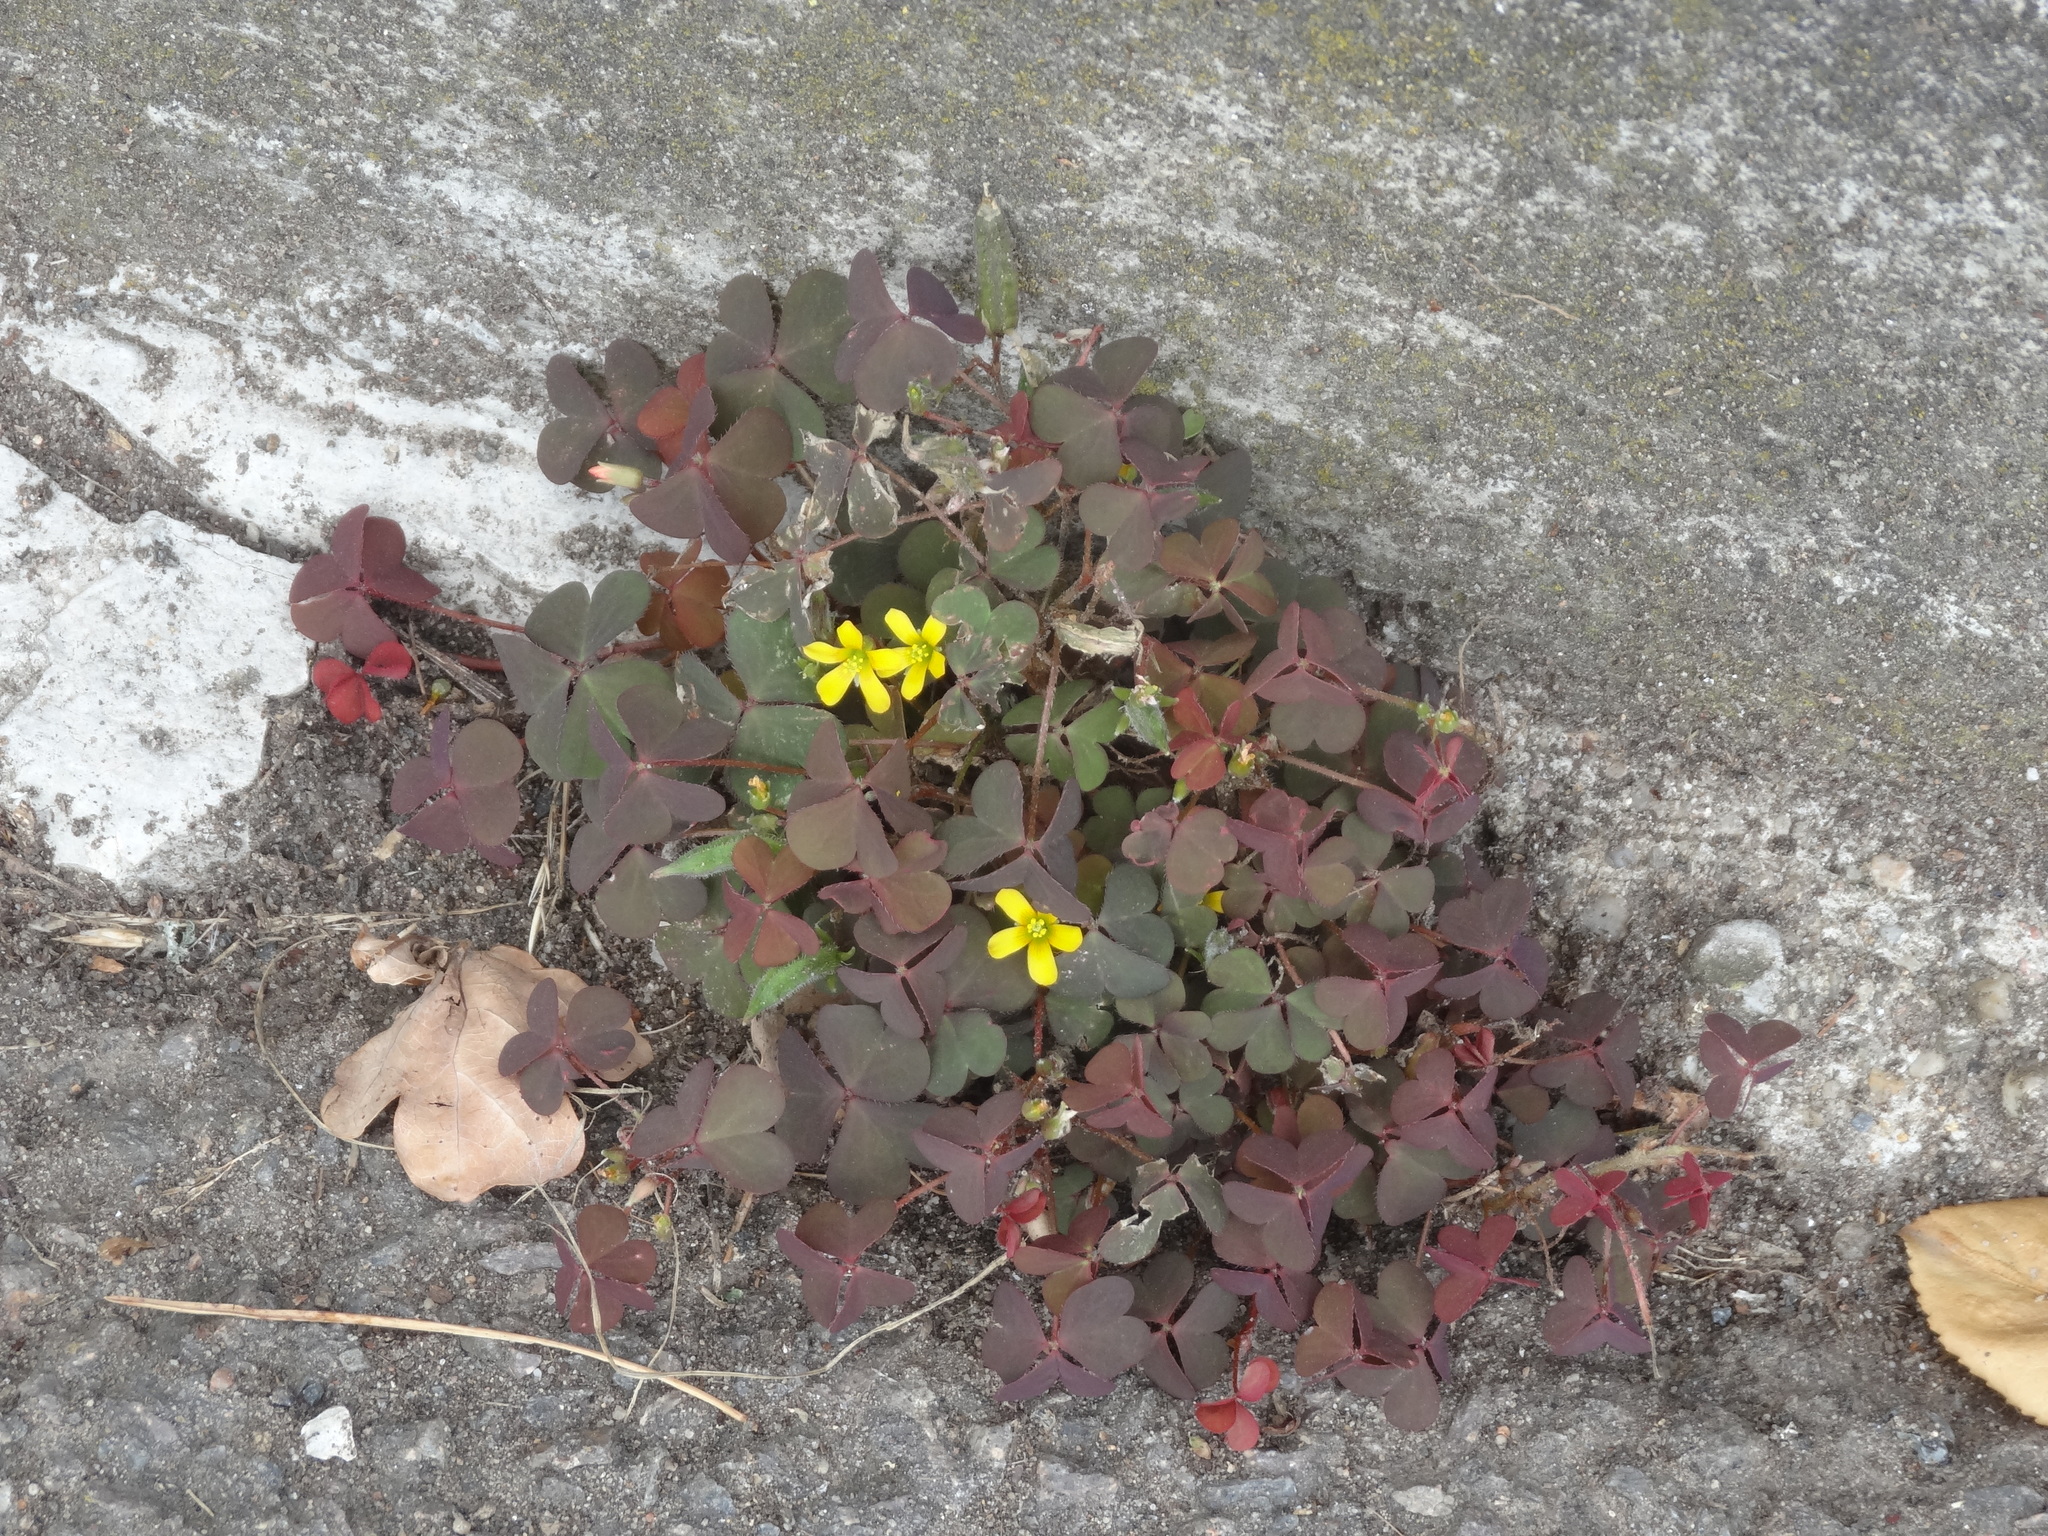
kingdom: Plantae
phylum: Tracheophyta
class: Magnoliopsida
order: Oxalidales
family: Oxalidaceae
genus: Oxalis
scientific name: Oxalis corniculata
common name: Procumbent yellow-sorrel
